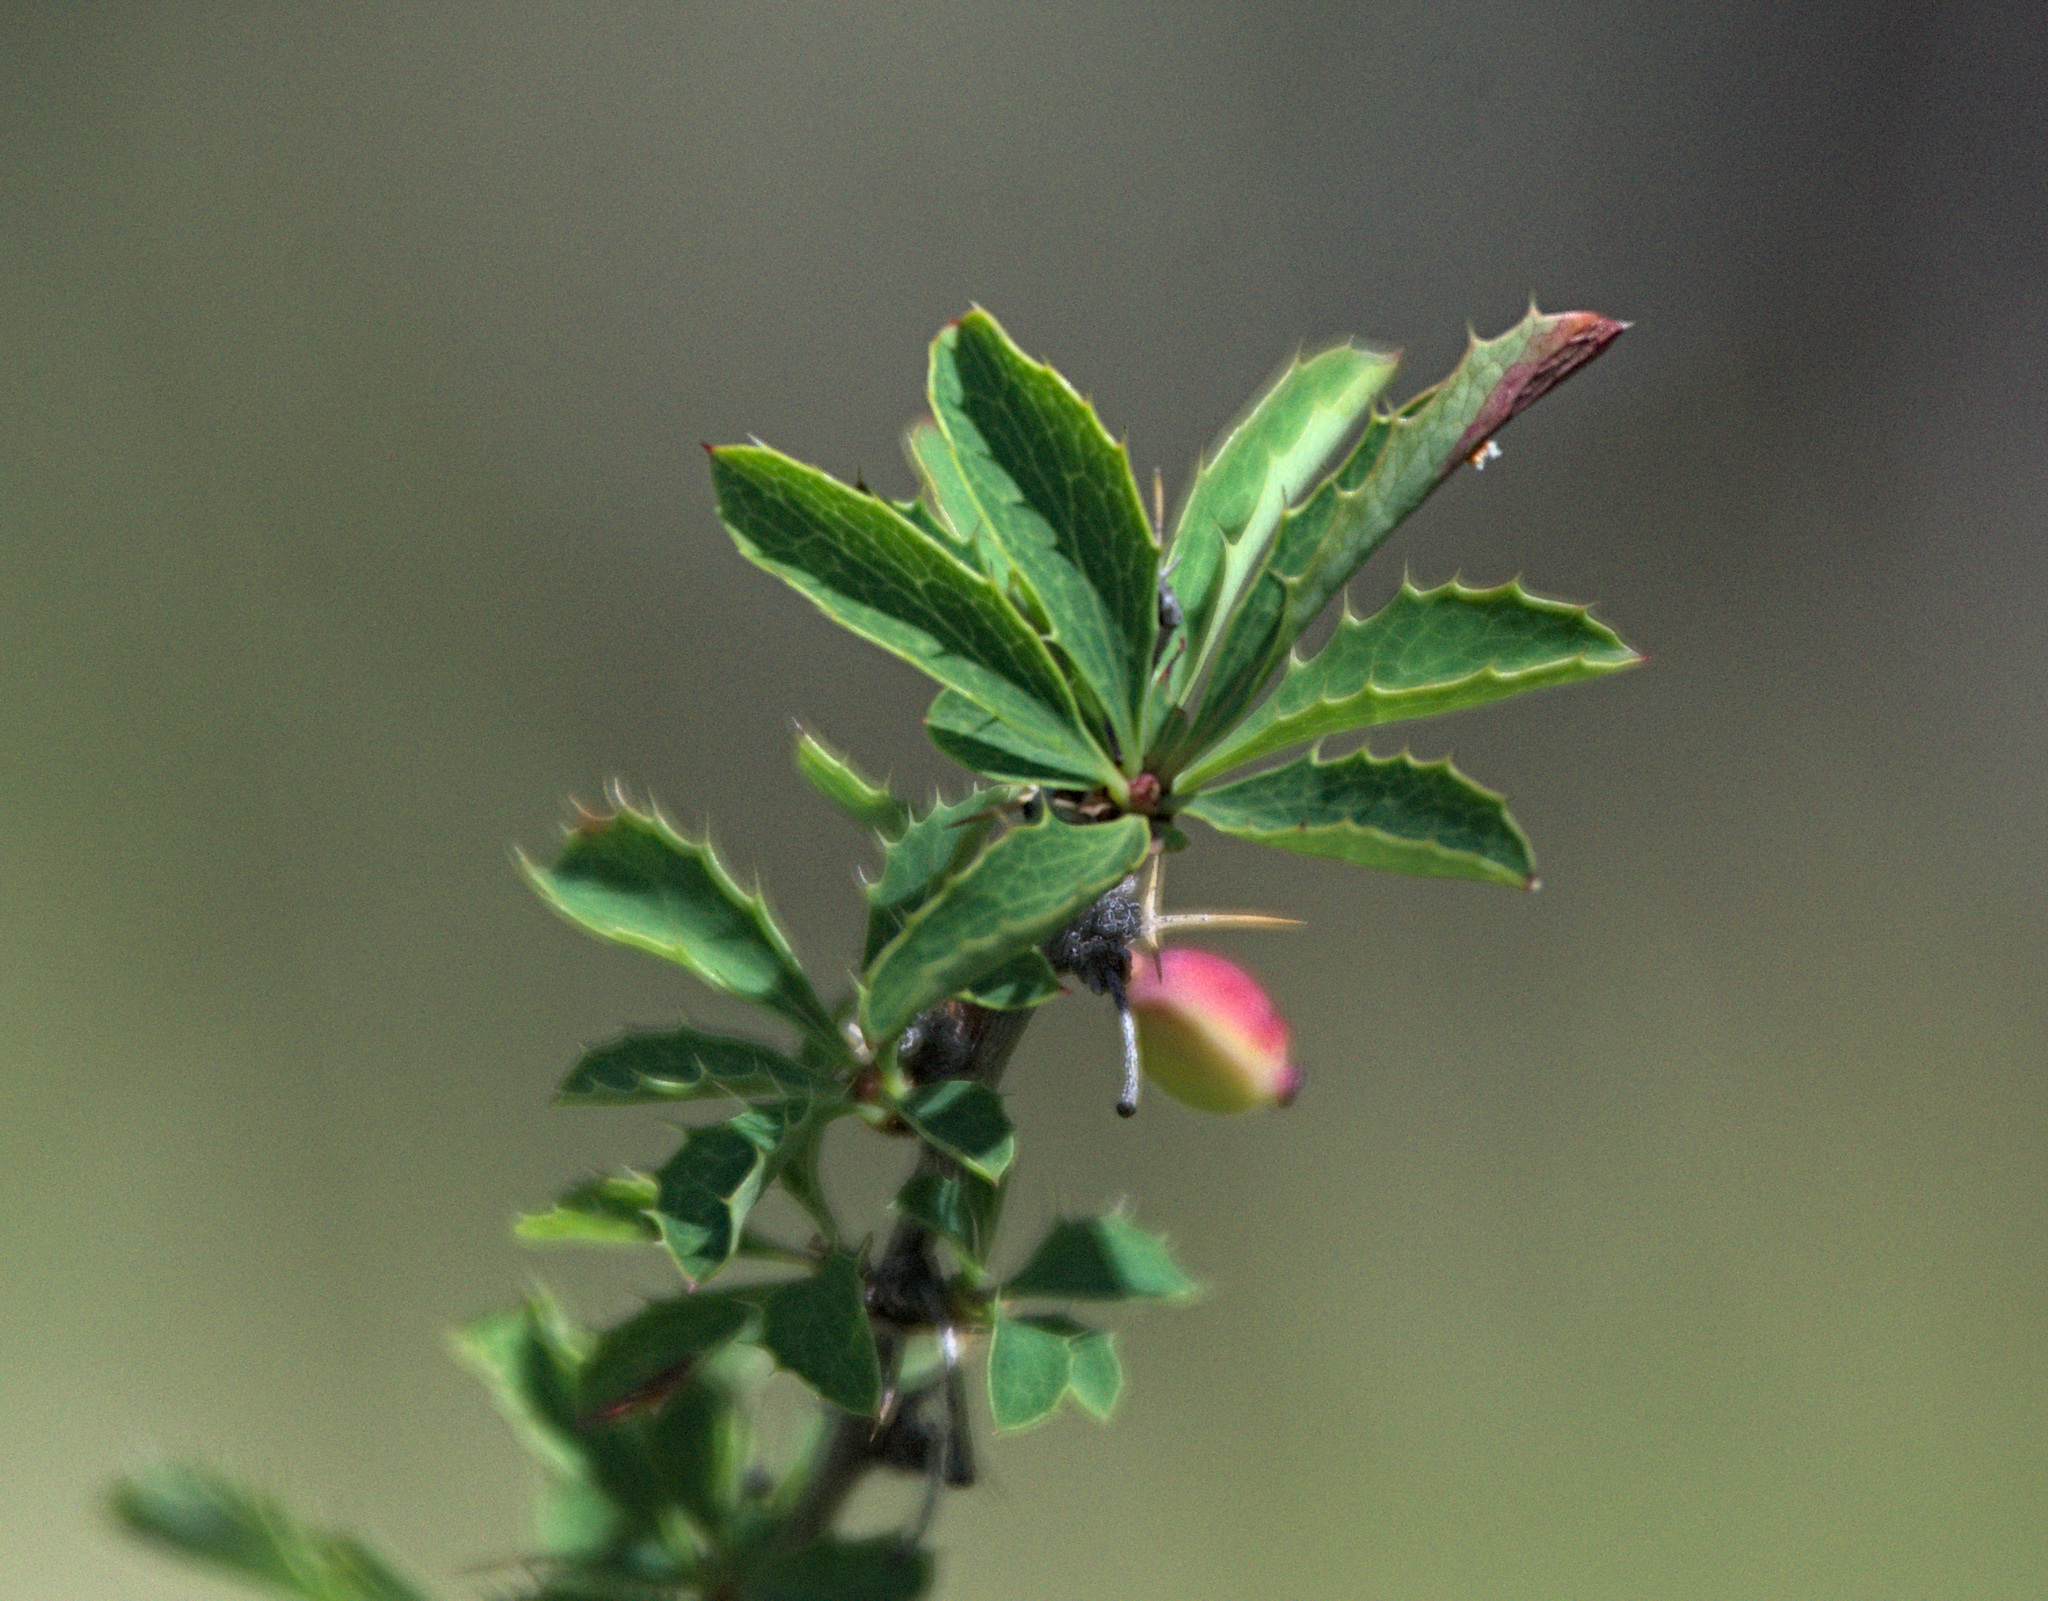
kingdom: Plantae
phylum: Tracheophyta
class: Magnoliopsida
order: Ranunculales
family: Berberidaceae
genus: Berberis
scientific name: Berberis sibirica
